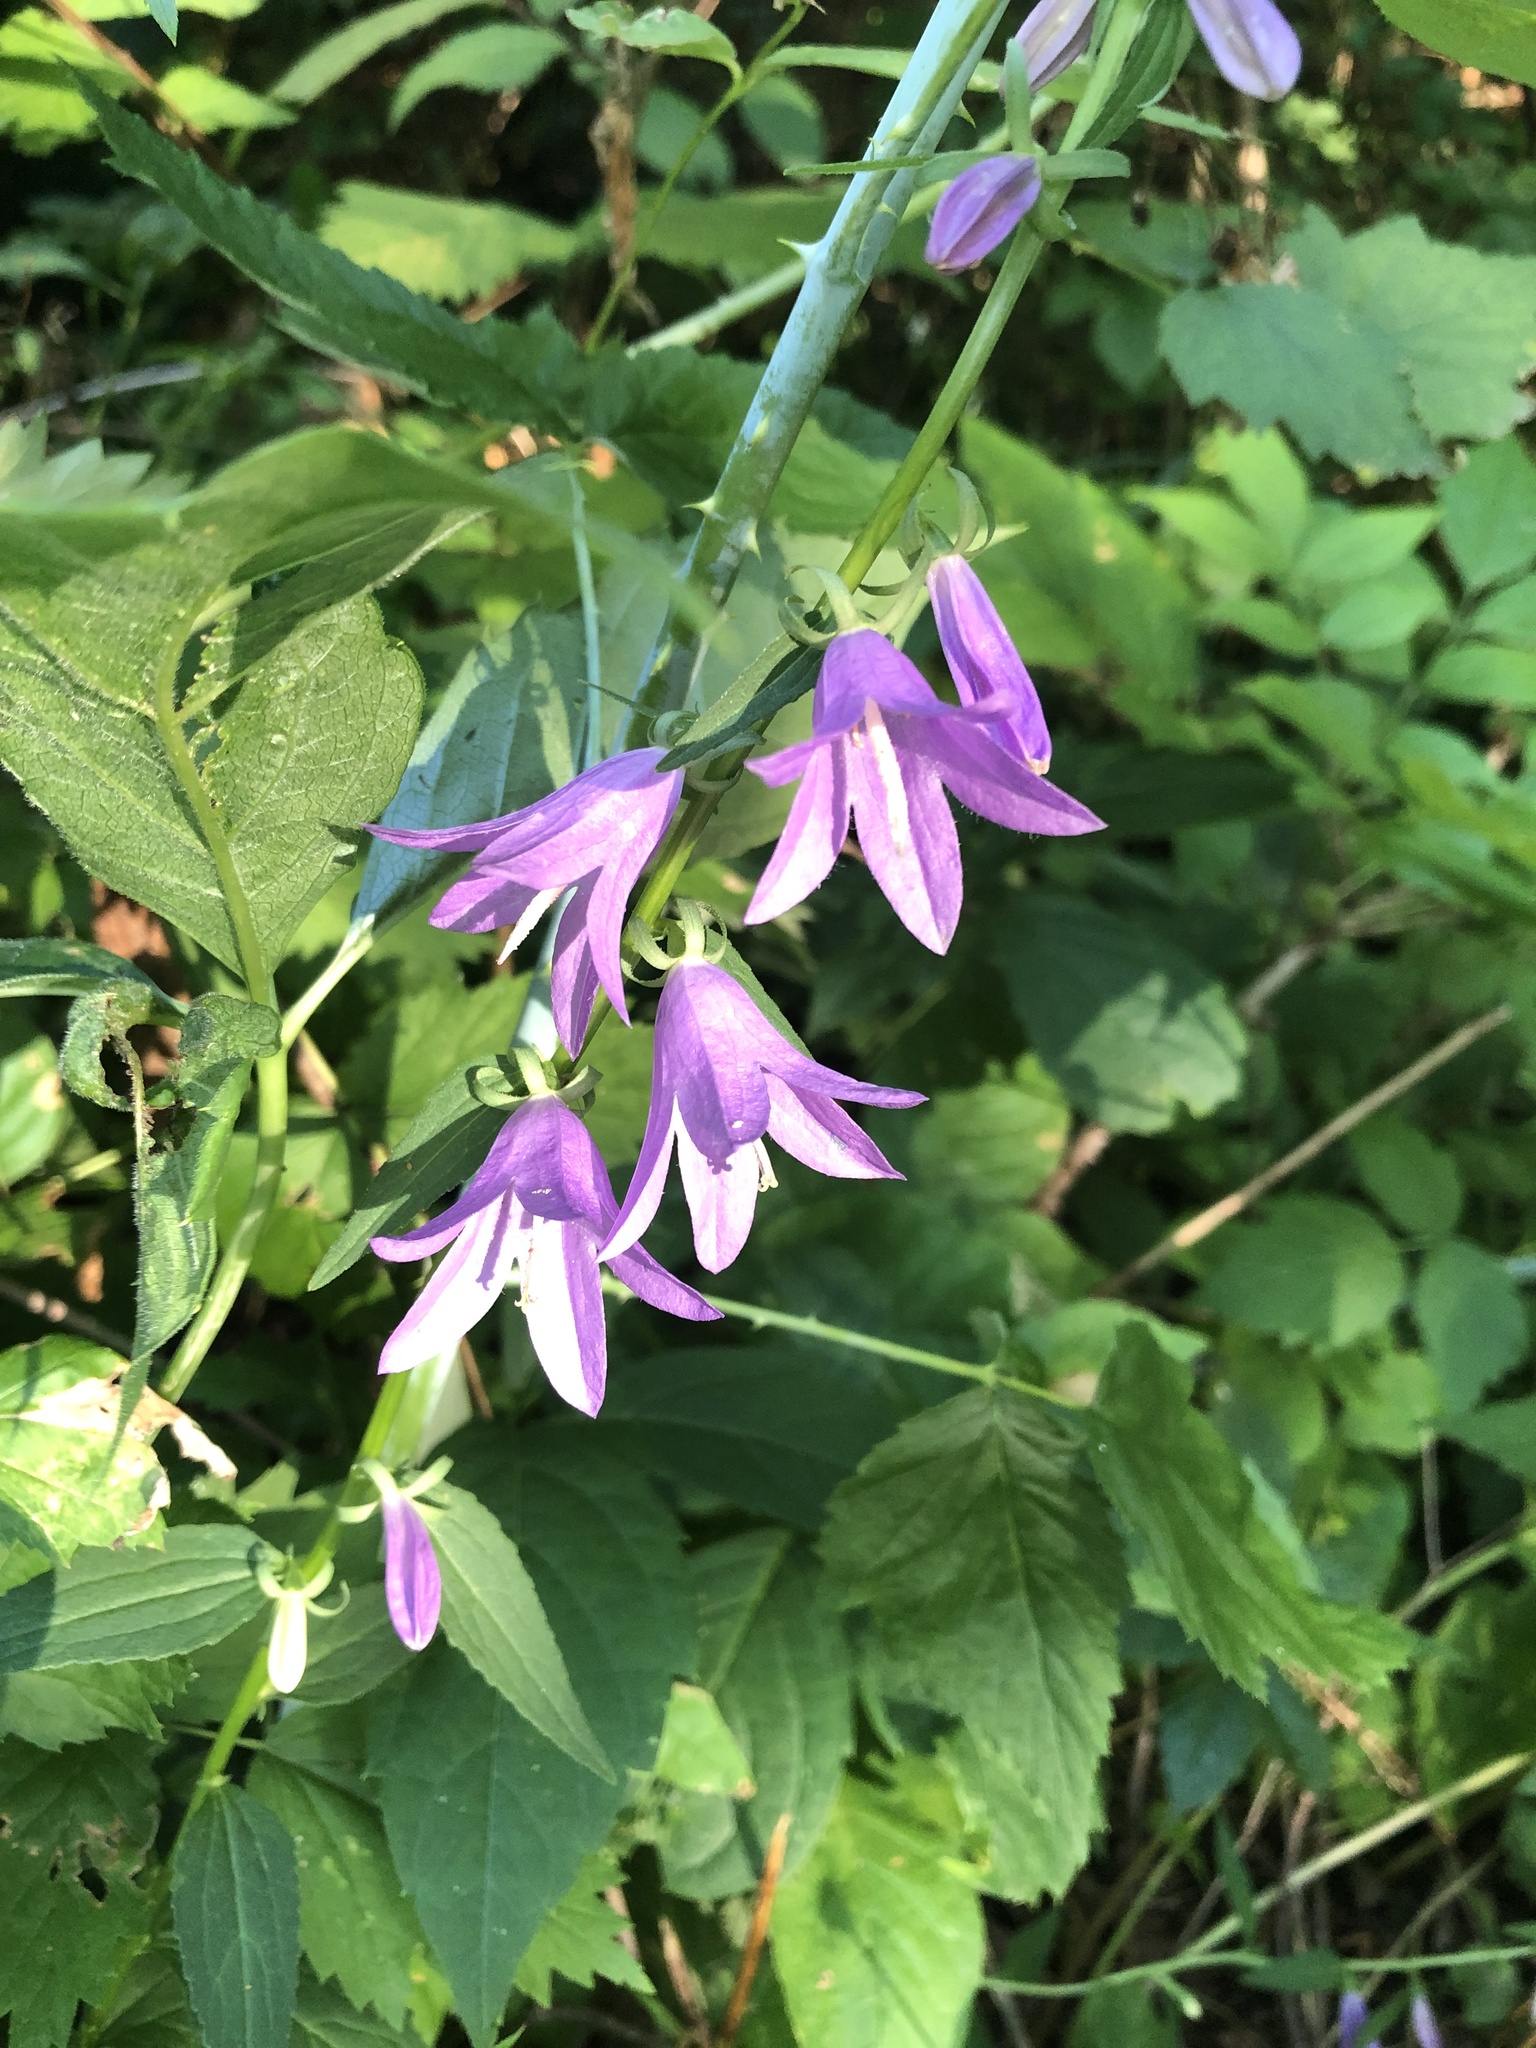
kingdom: Plantae
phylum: Tracheophyta
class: Magnoliopsida
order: Asterales
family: Campanulaceae
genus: Campanula
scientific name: Campanula rapunculoides
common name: Creeping bellflower
